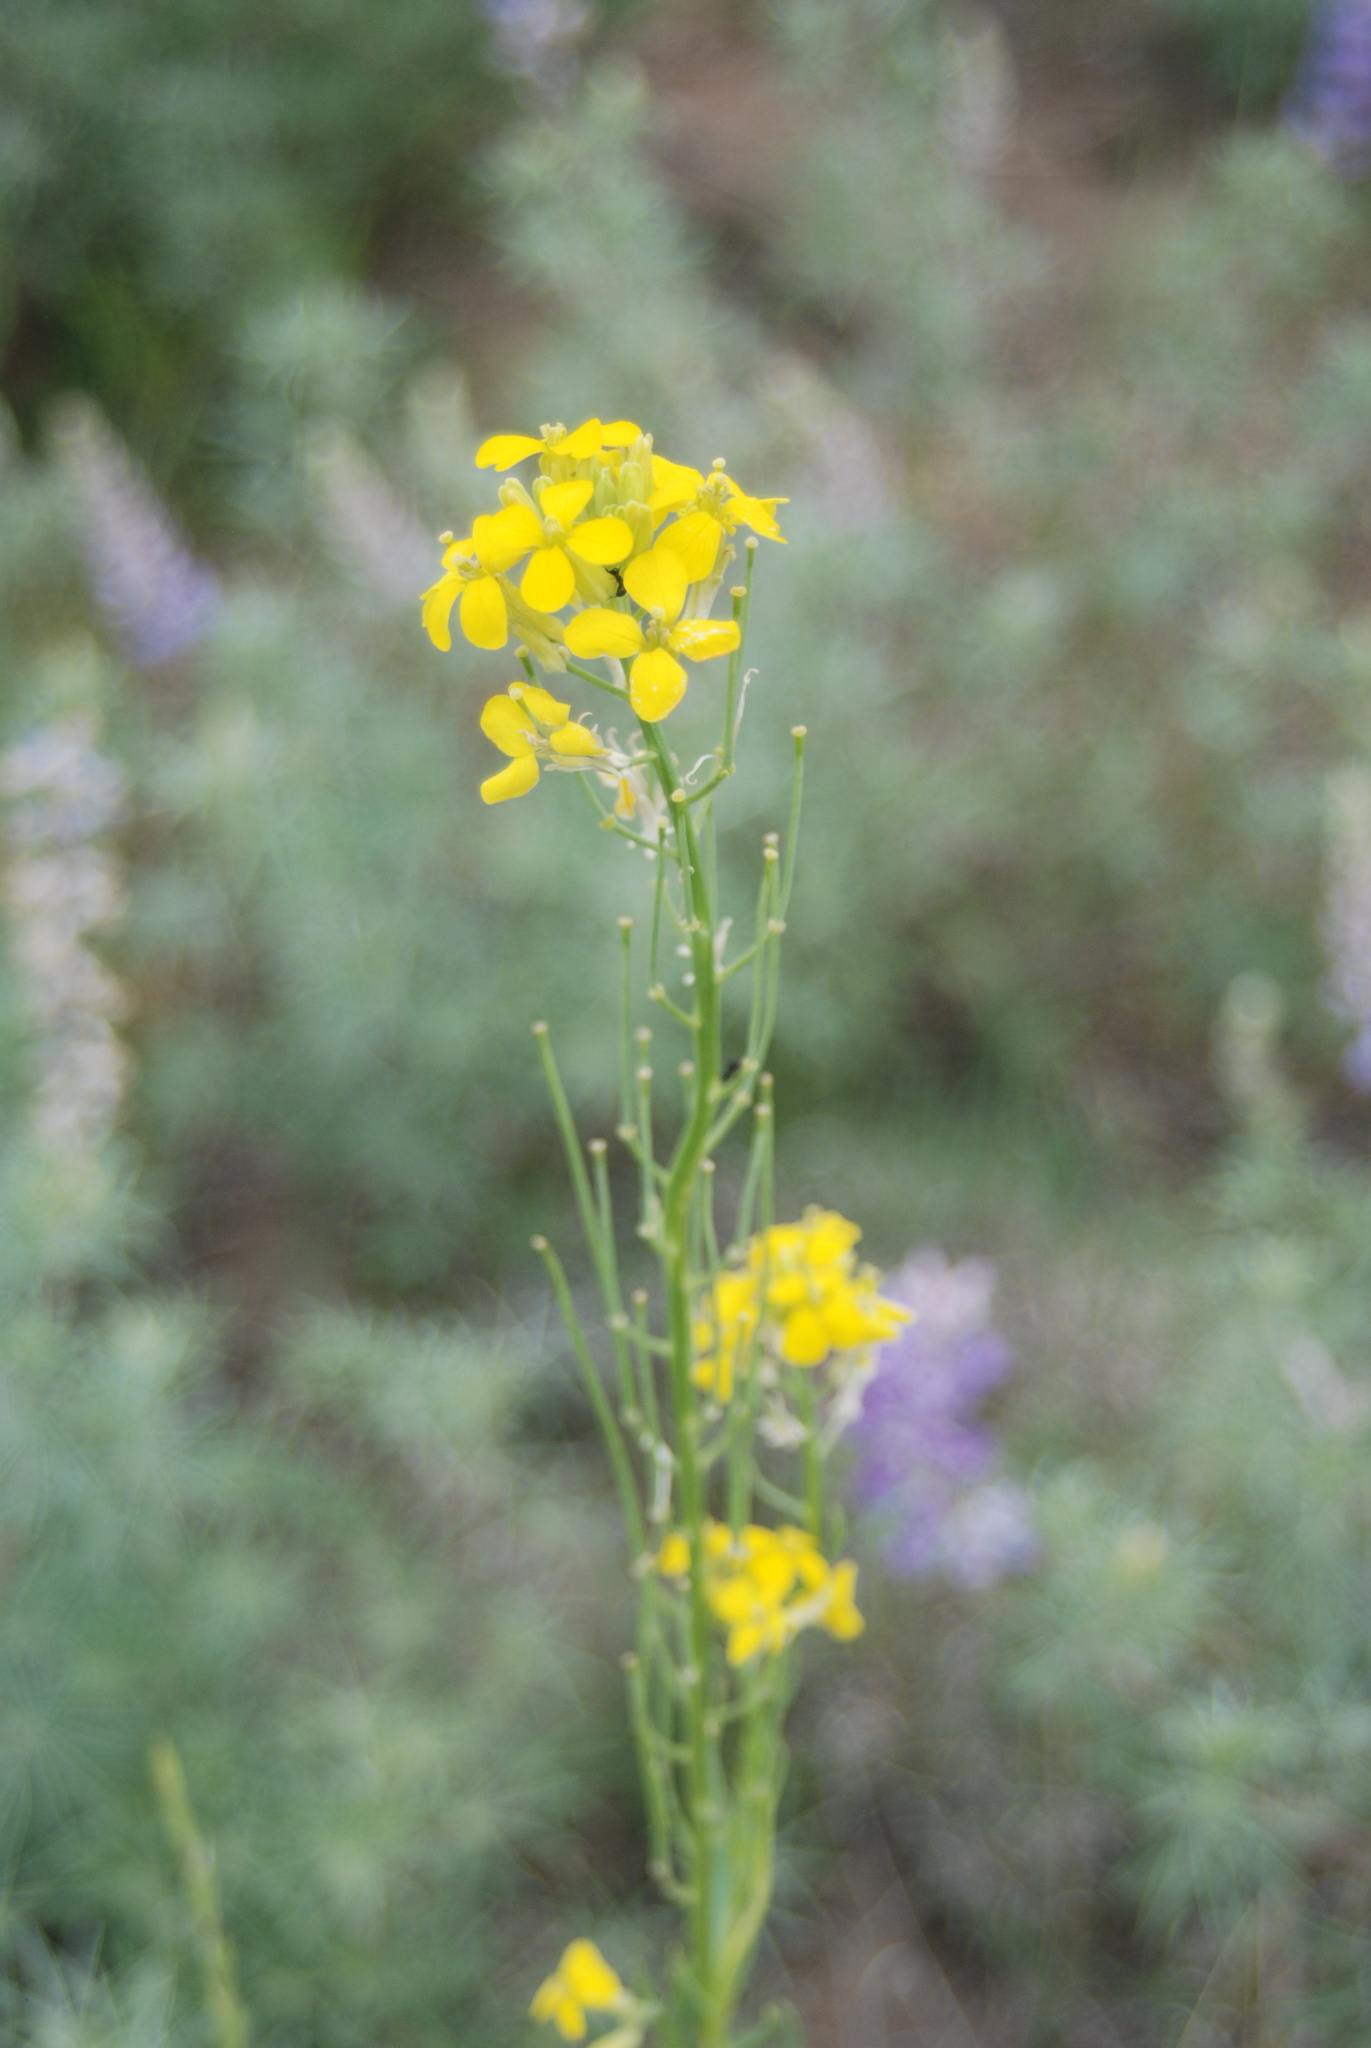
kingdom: Plantae
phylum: Tracheophyta
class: Magnoliopsida
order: Brassicales
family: Brassicaceae
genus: Erysimum
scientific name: Erysimum capitatum
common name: Western wallflower
